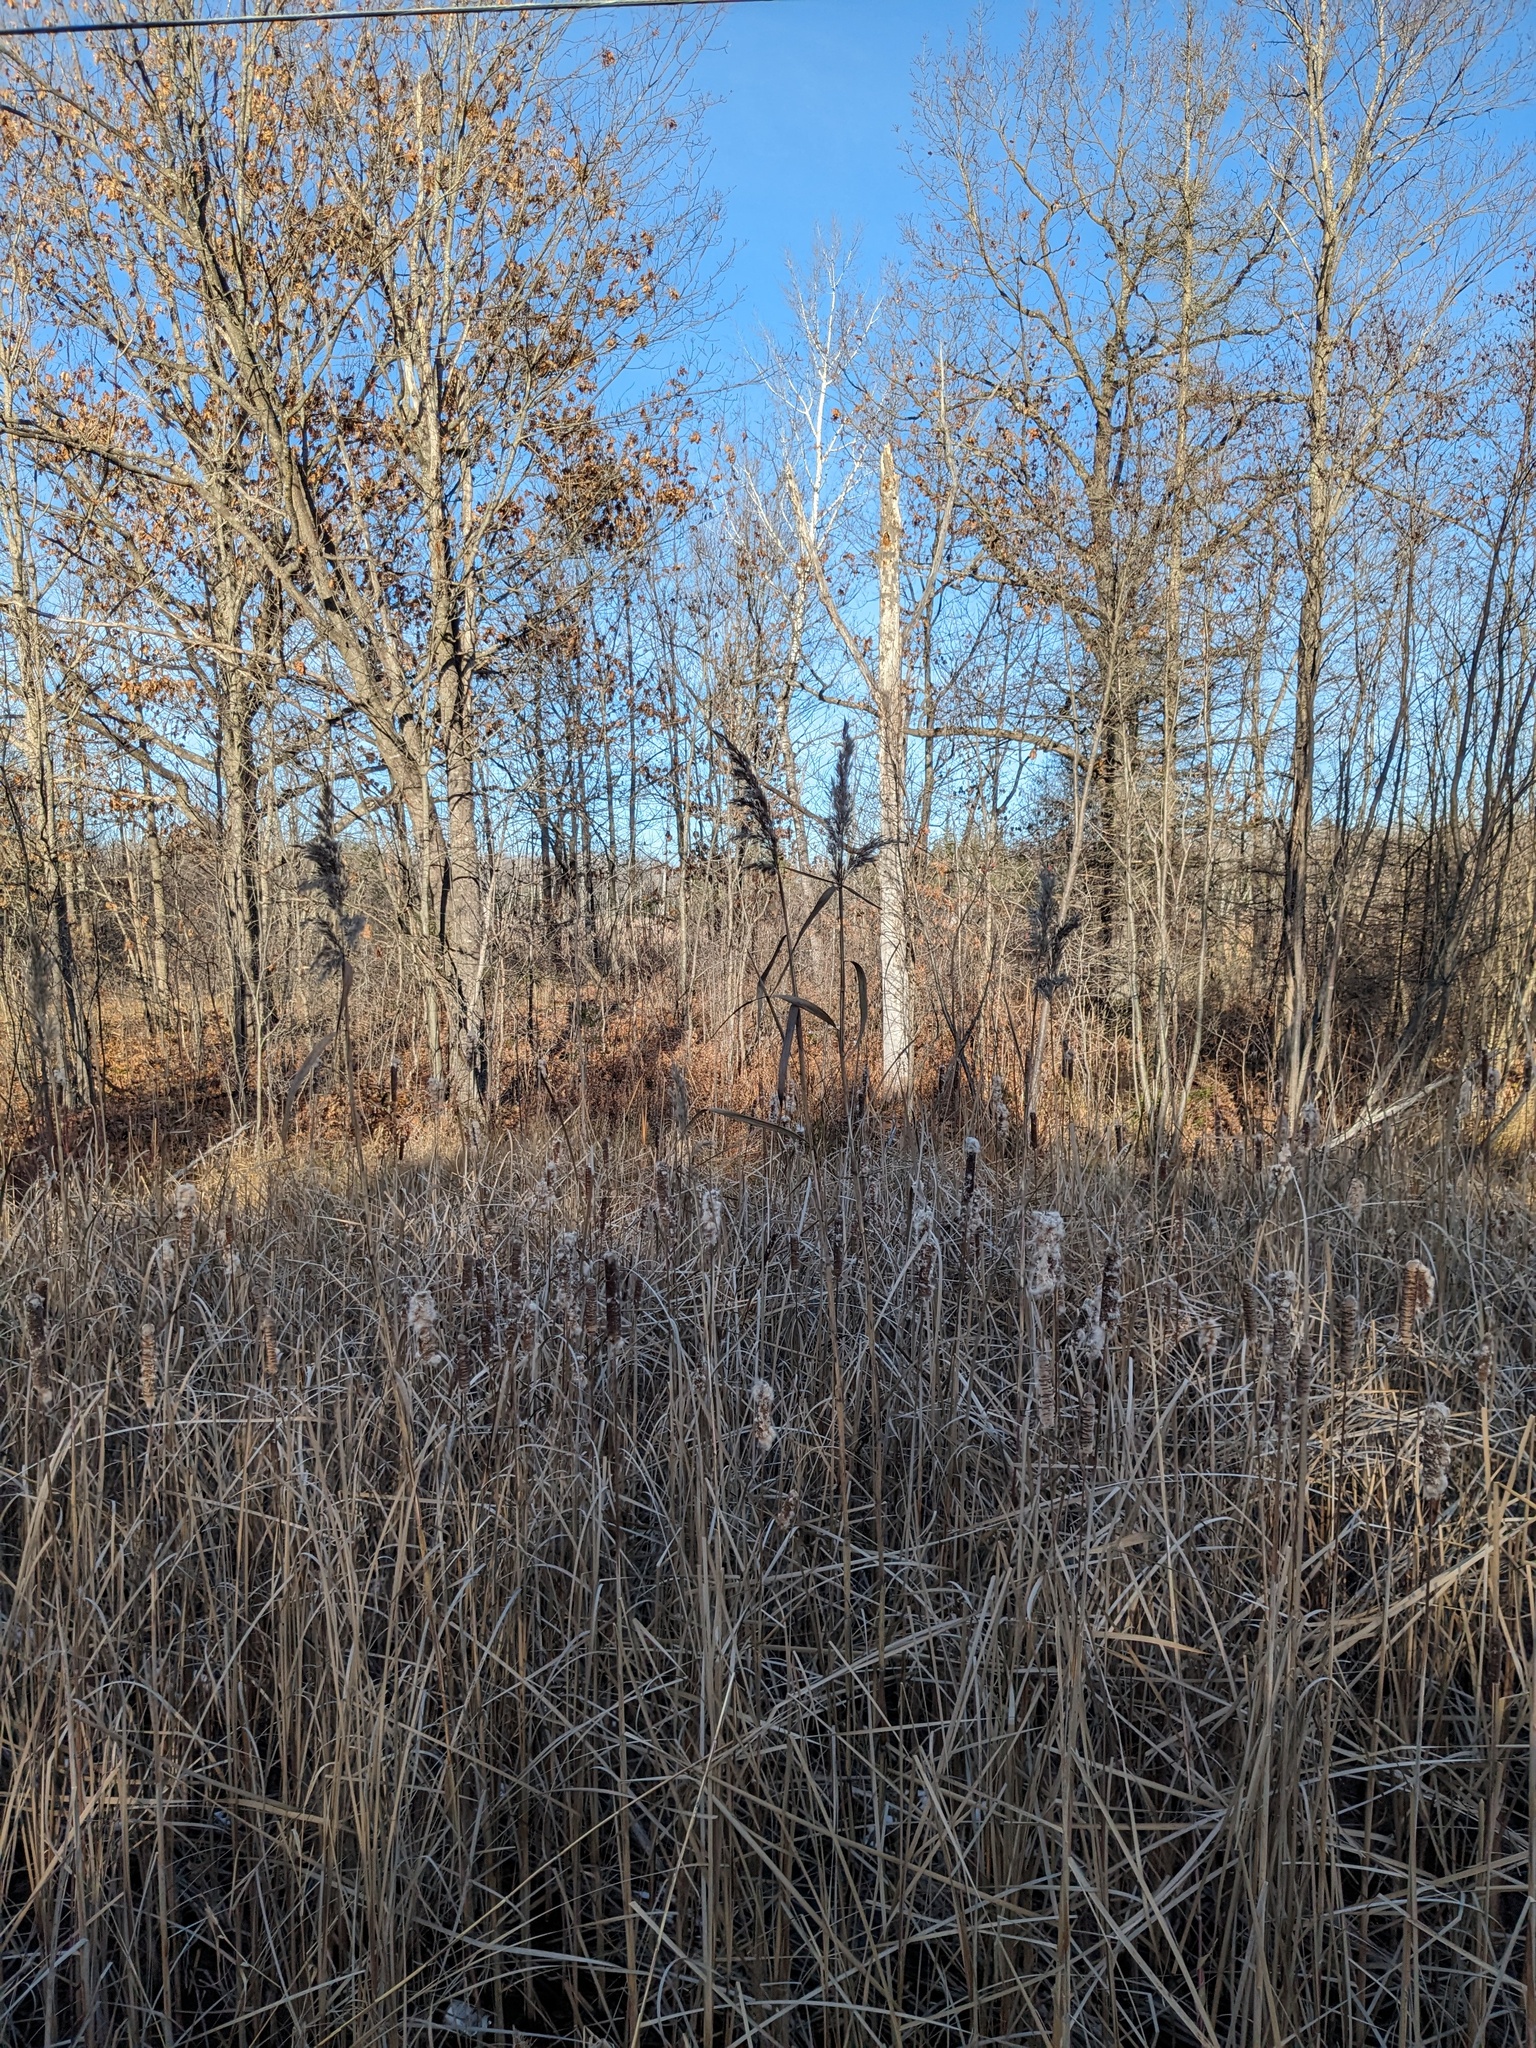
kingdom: Plantae
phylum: Tracheophyta
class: Liliopsida
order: Poales
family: Poaceae
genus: Phragmites
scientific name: Phragmites australis
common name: Common reed
